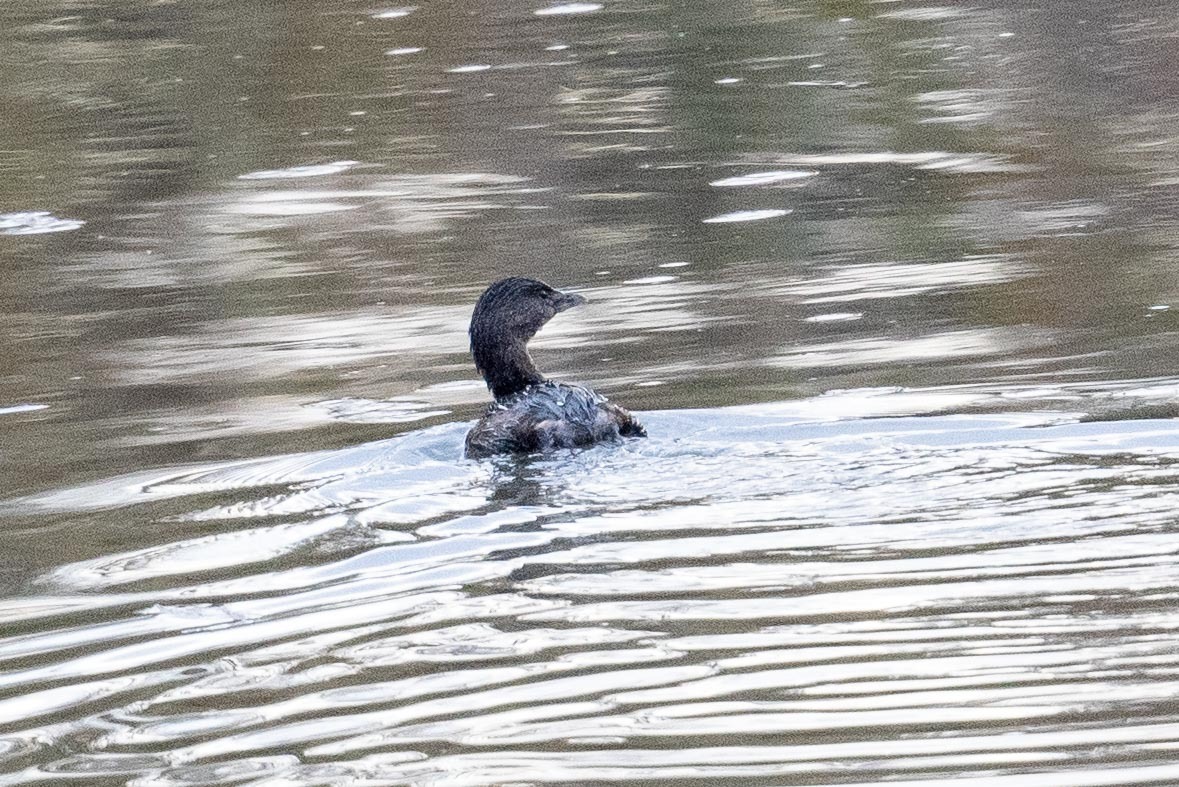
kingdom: Animalia
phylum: Chordata
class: Aves
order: Podicipediformes
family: Podicipedidae
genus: Podilymbus
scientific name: Podilymbus podiceps
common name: Pied-billed grebe
